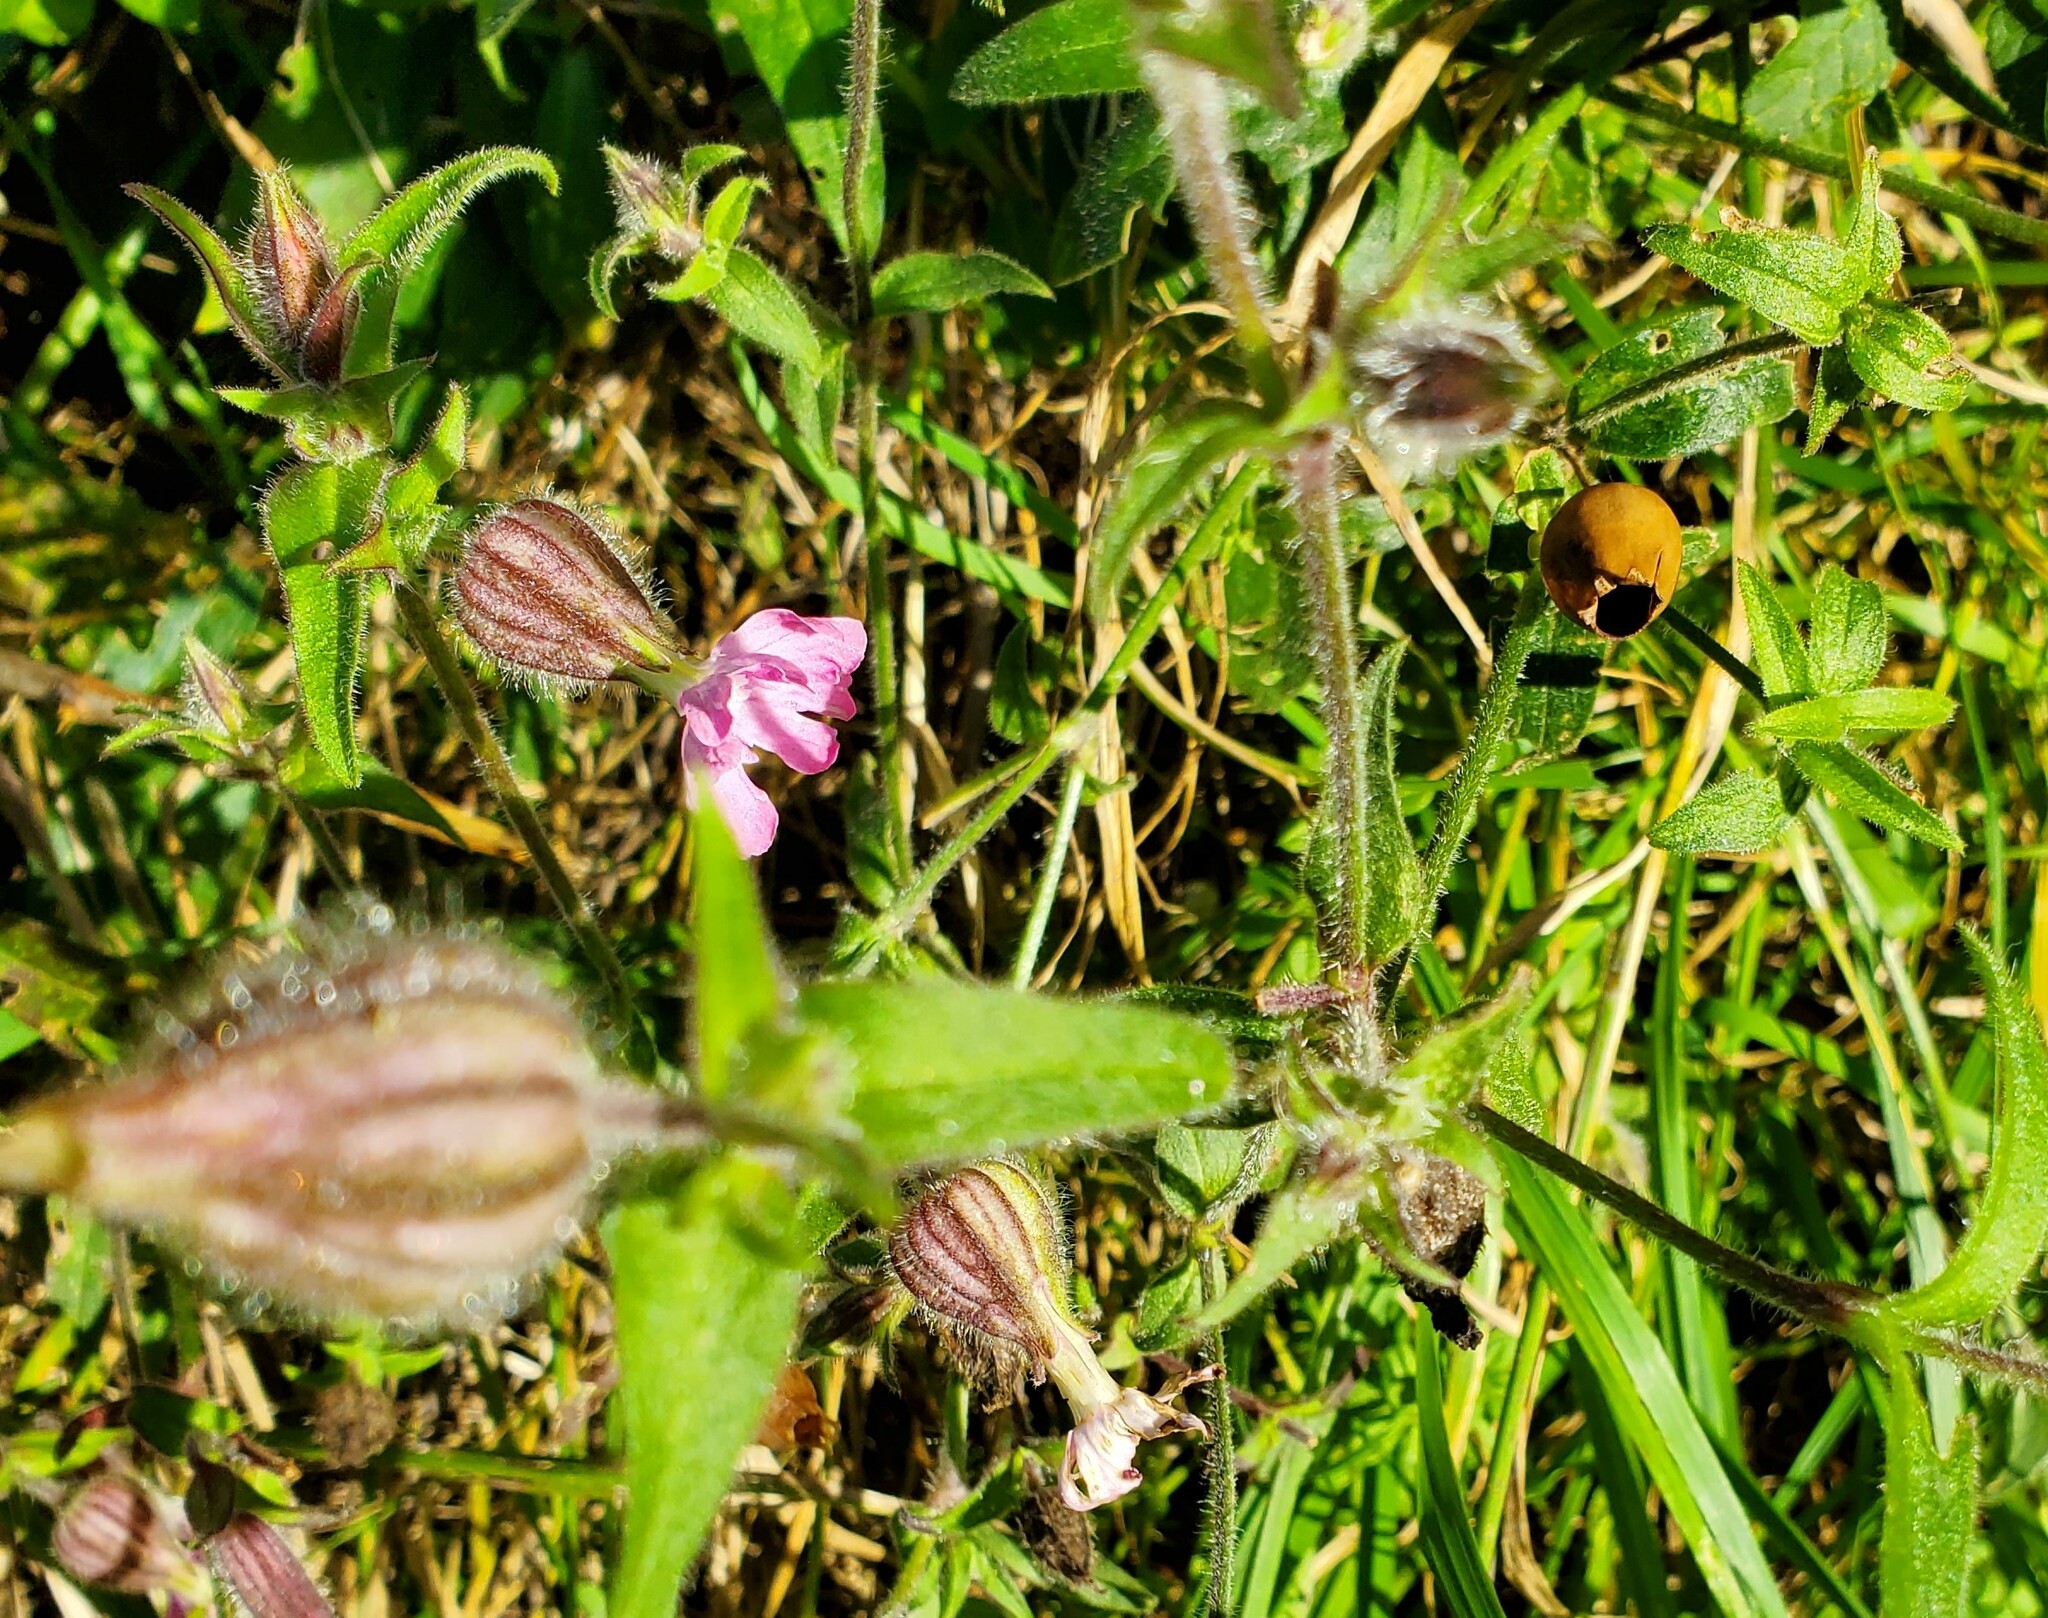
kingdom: Plantae
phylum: Tracheophyta
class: Magnoliopsida
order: Caryophyllales
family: Caryophyllaceae
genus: Silene
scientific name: Silene dioica
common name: Red campion
